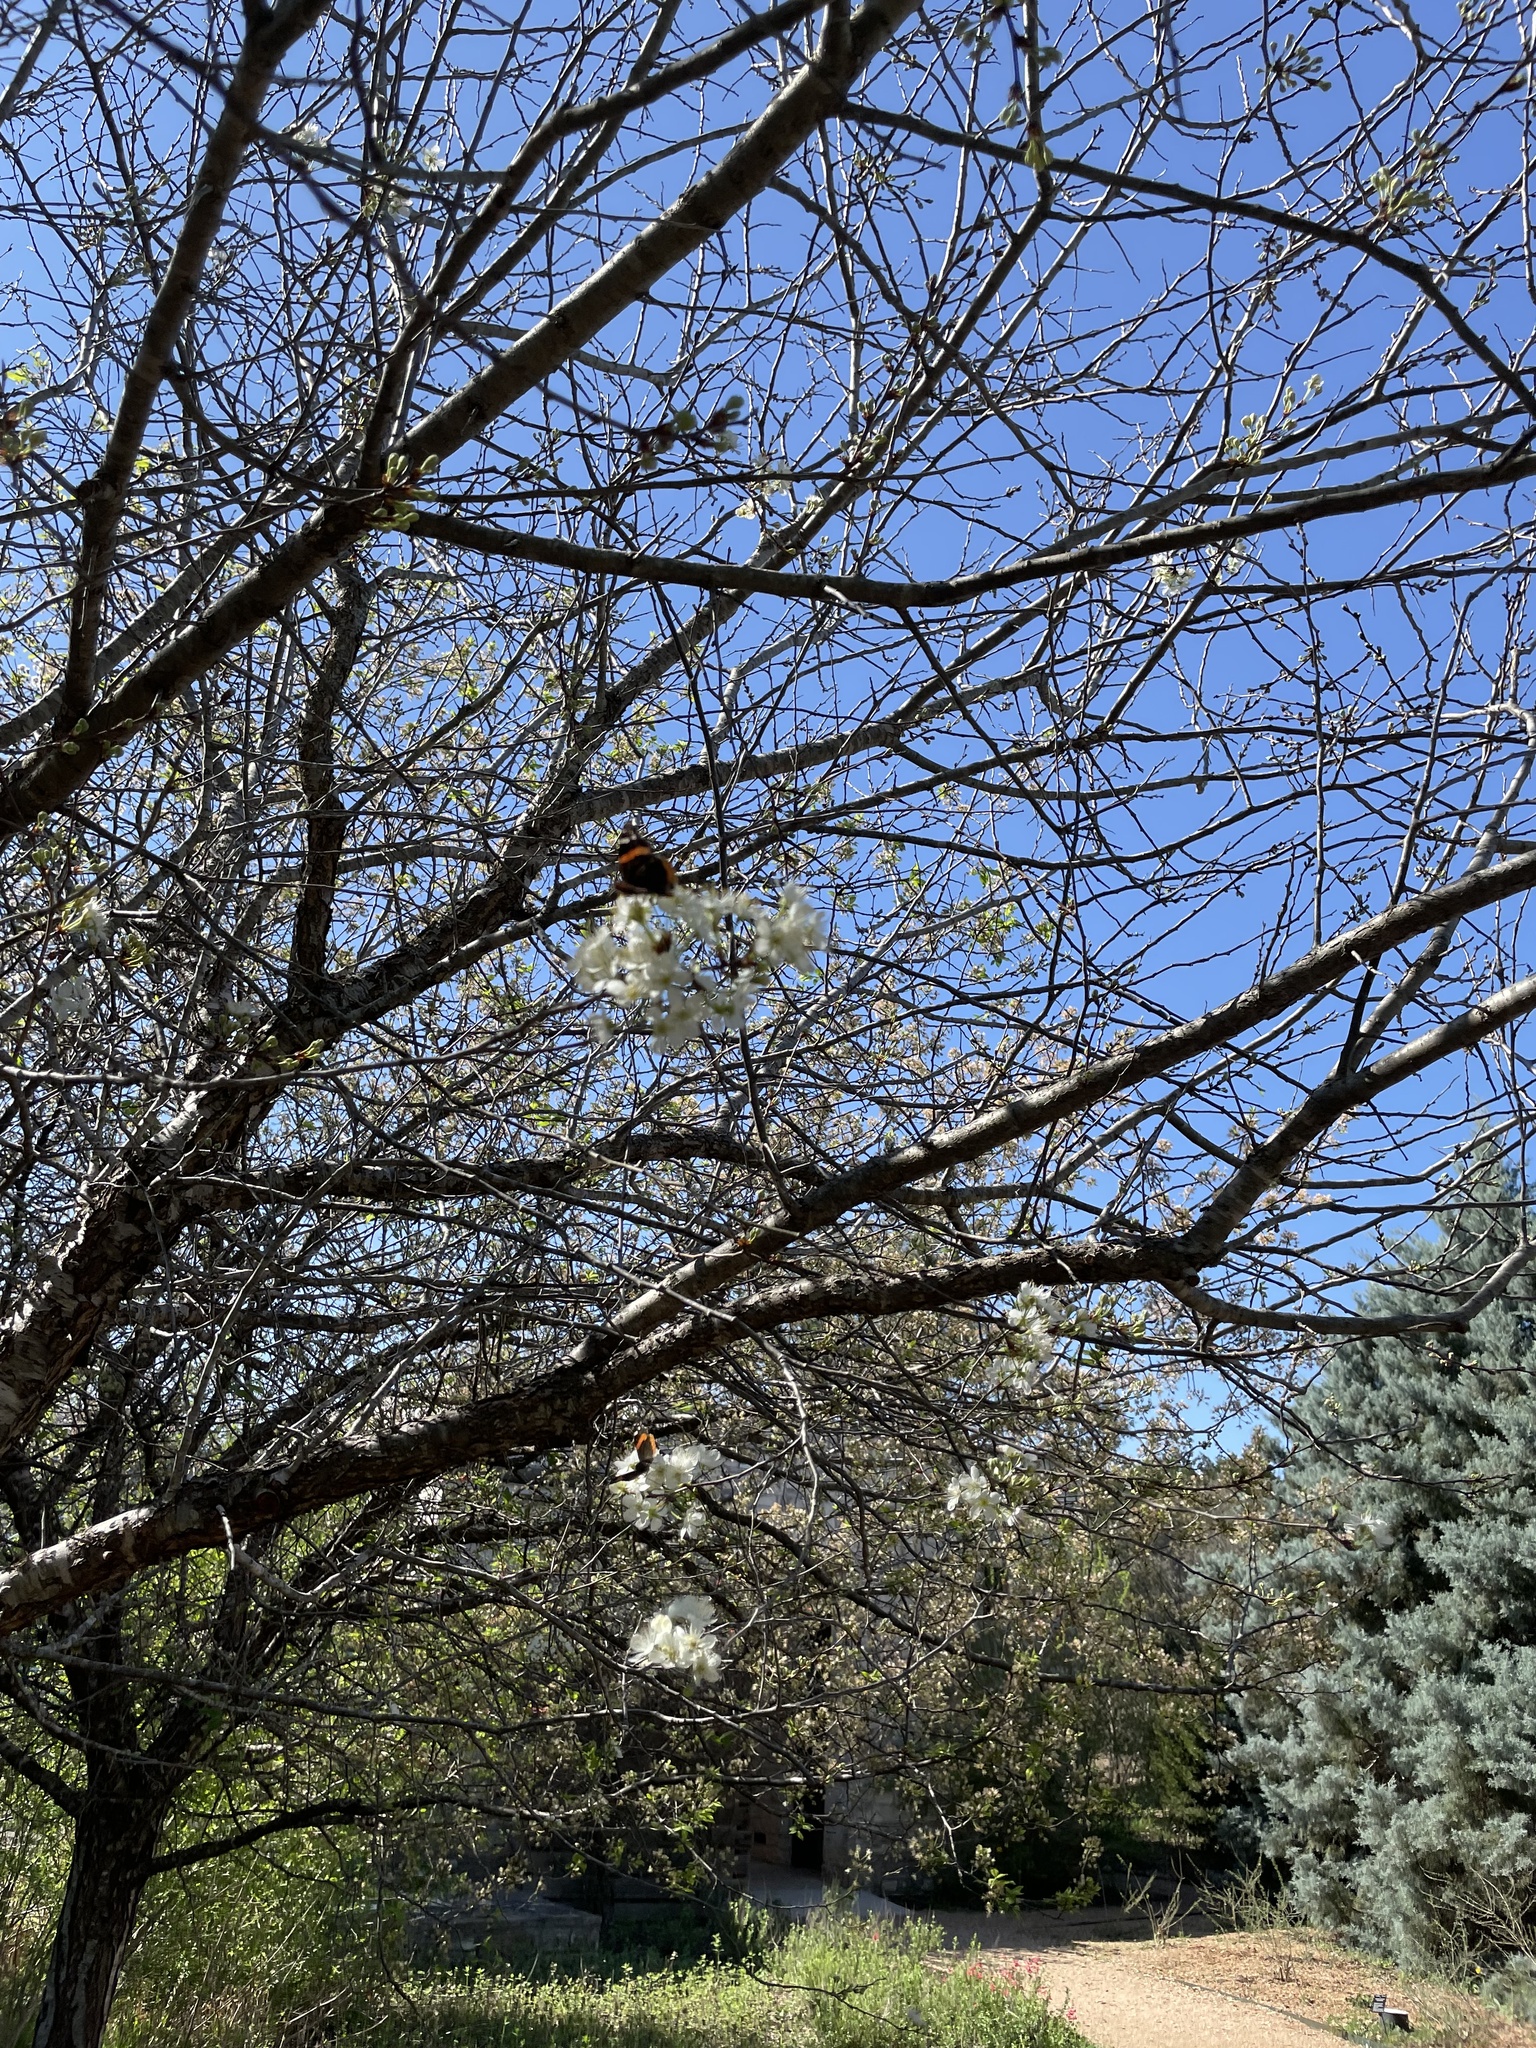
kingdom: Animalia
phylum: Arthropoda
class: Insecta
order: Lepidoptera
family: Nymphalidae
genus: Vanessa
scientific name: Vanessa atalanta
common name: Red admiral
